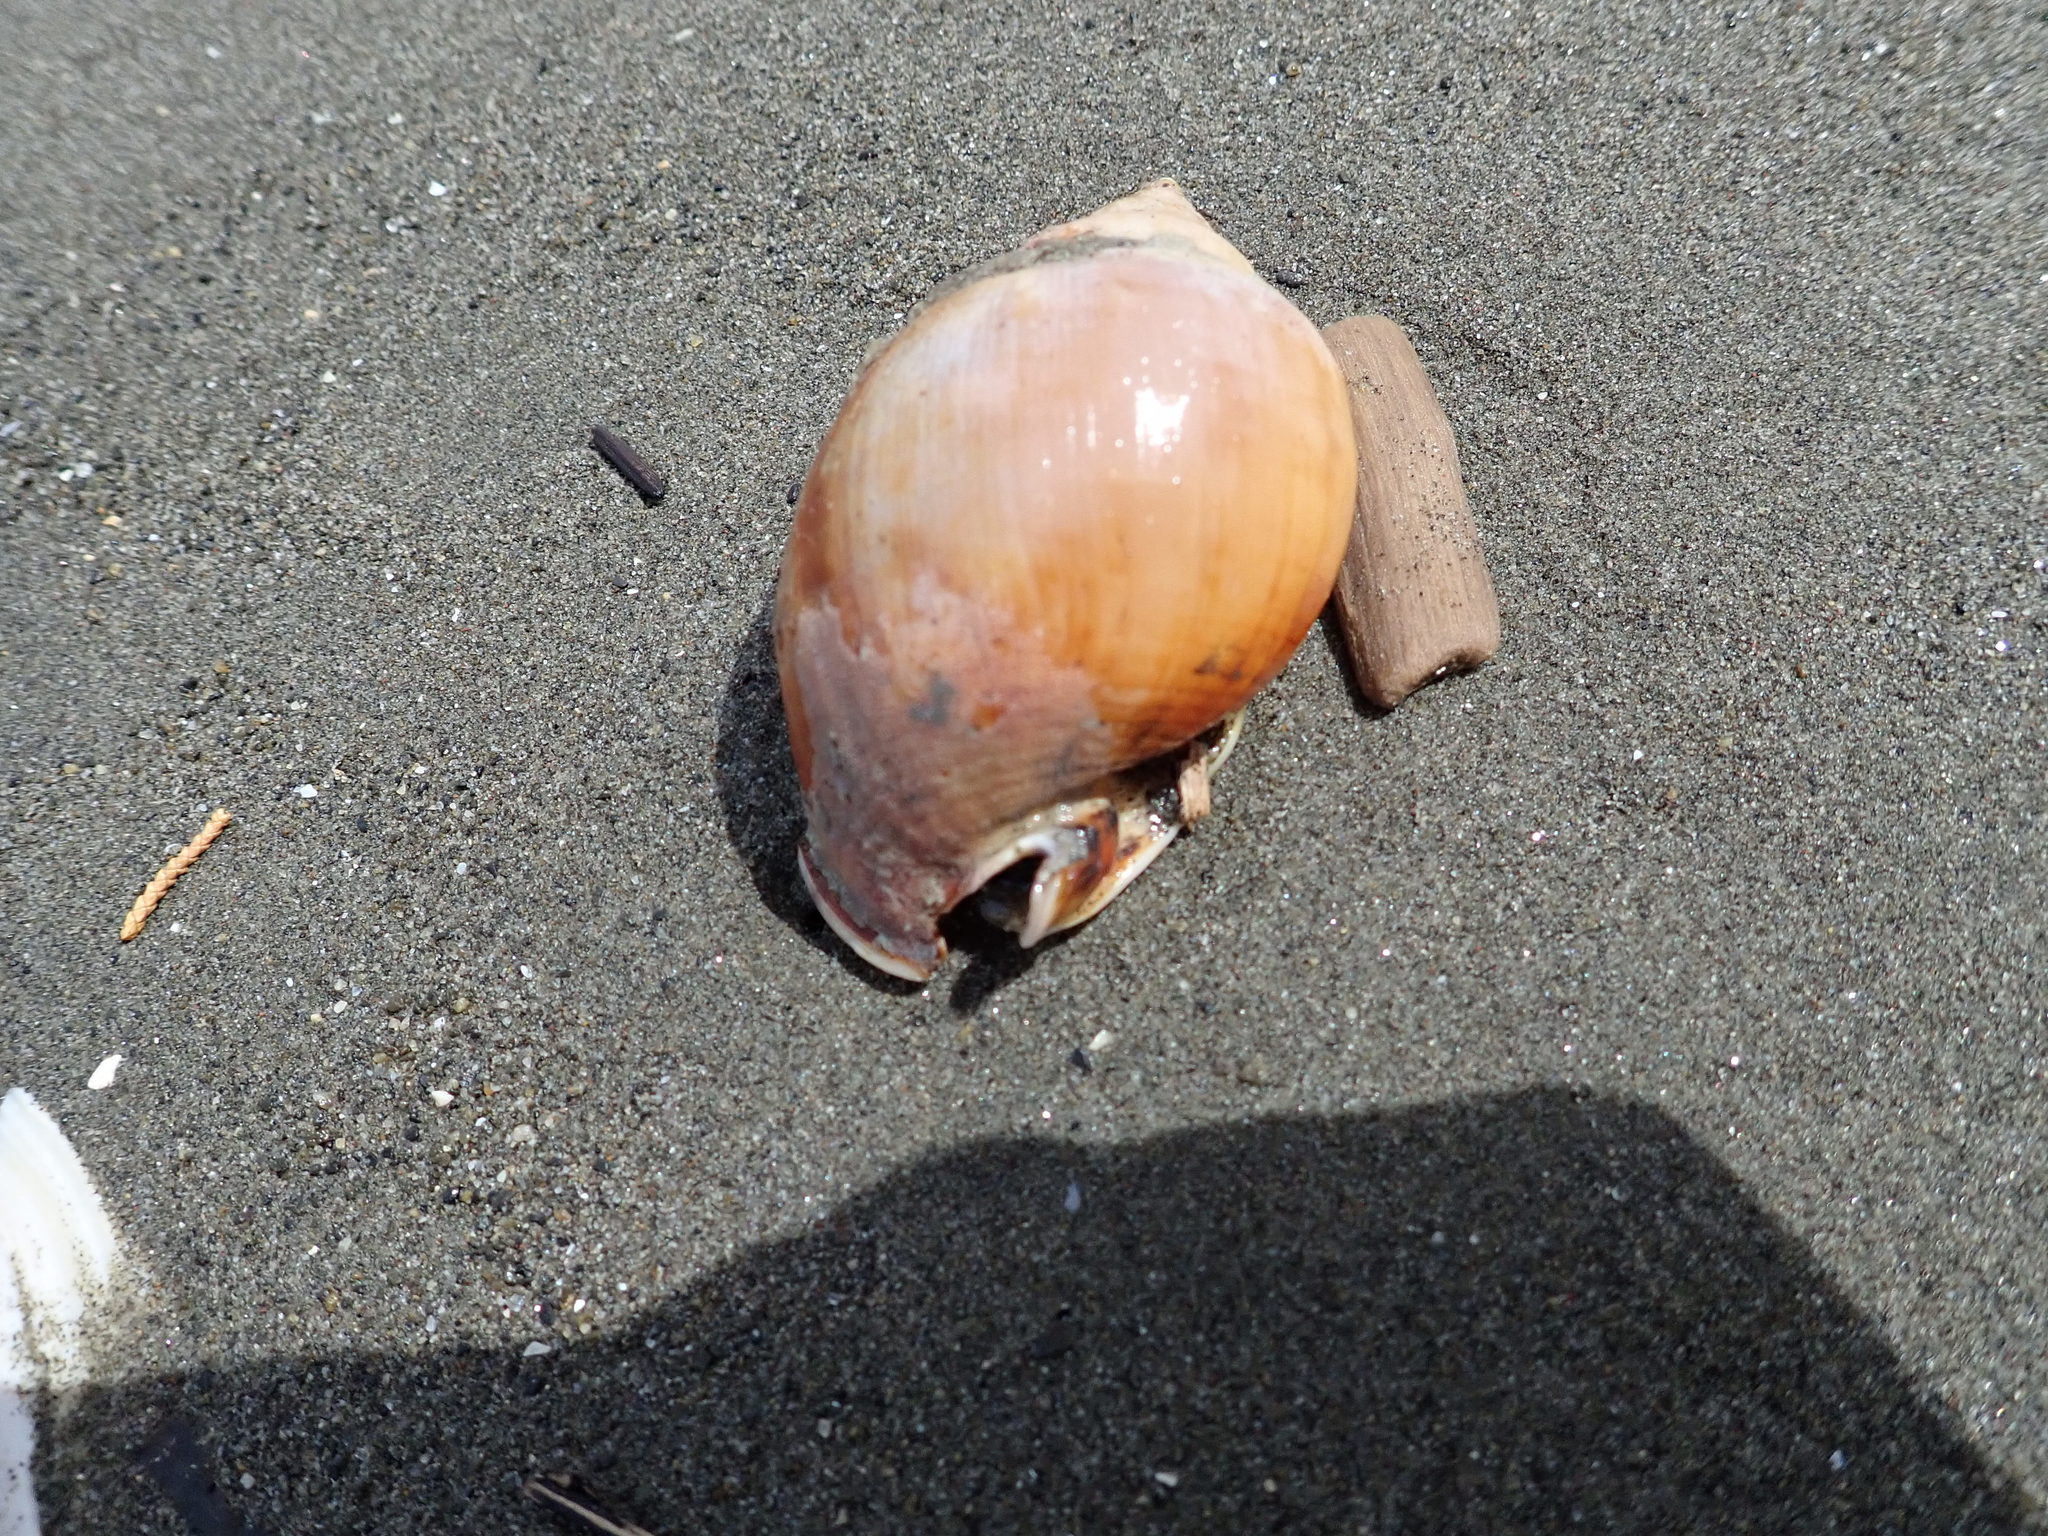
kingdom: Animalia
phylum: Mollusca
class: Gastropoda
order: Littorinimorpha
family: Struthiolariidae
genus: Struthiolaria
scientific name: Struthiolaria papulosa
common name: Large ostrich foot
